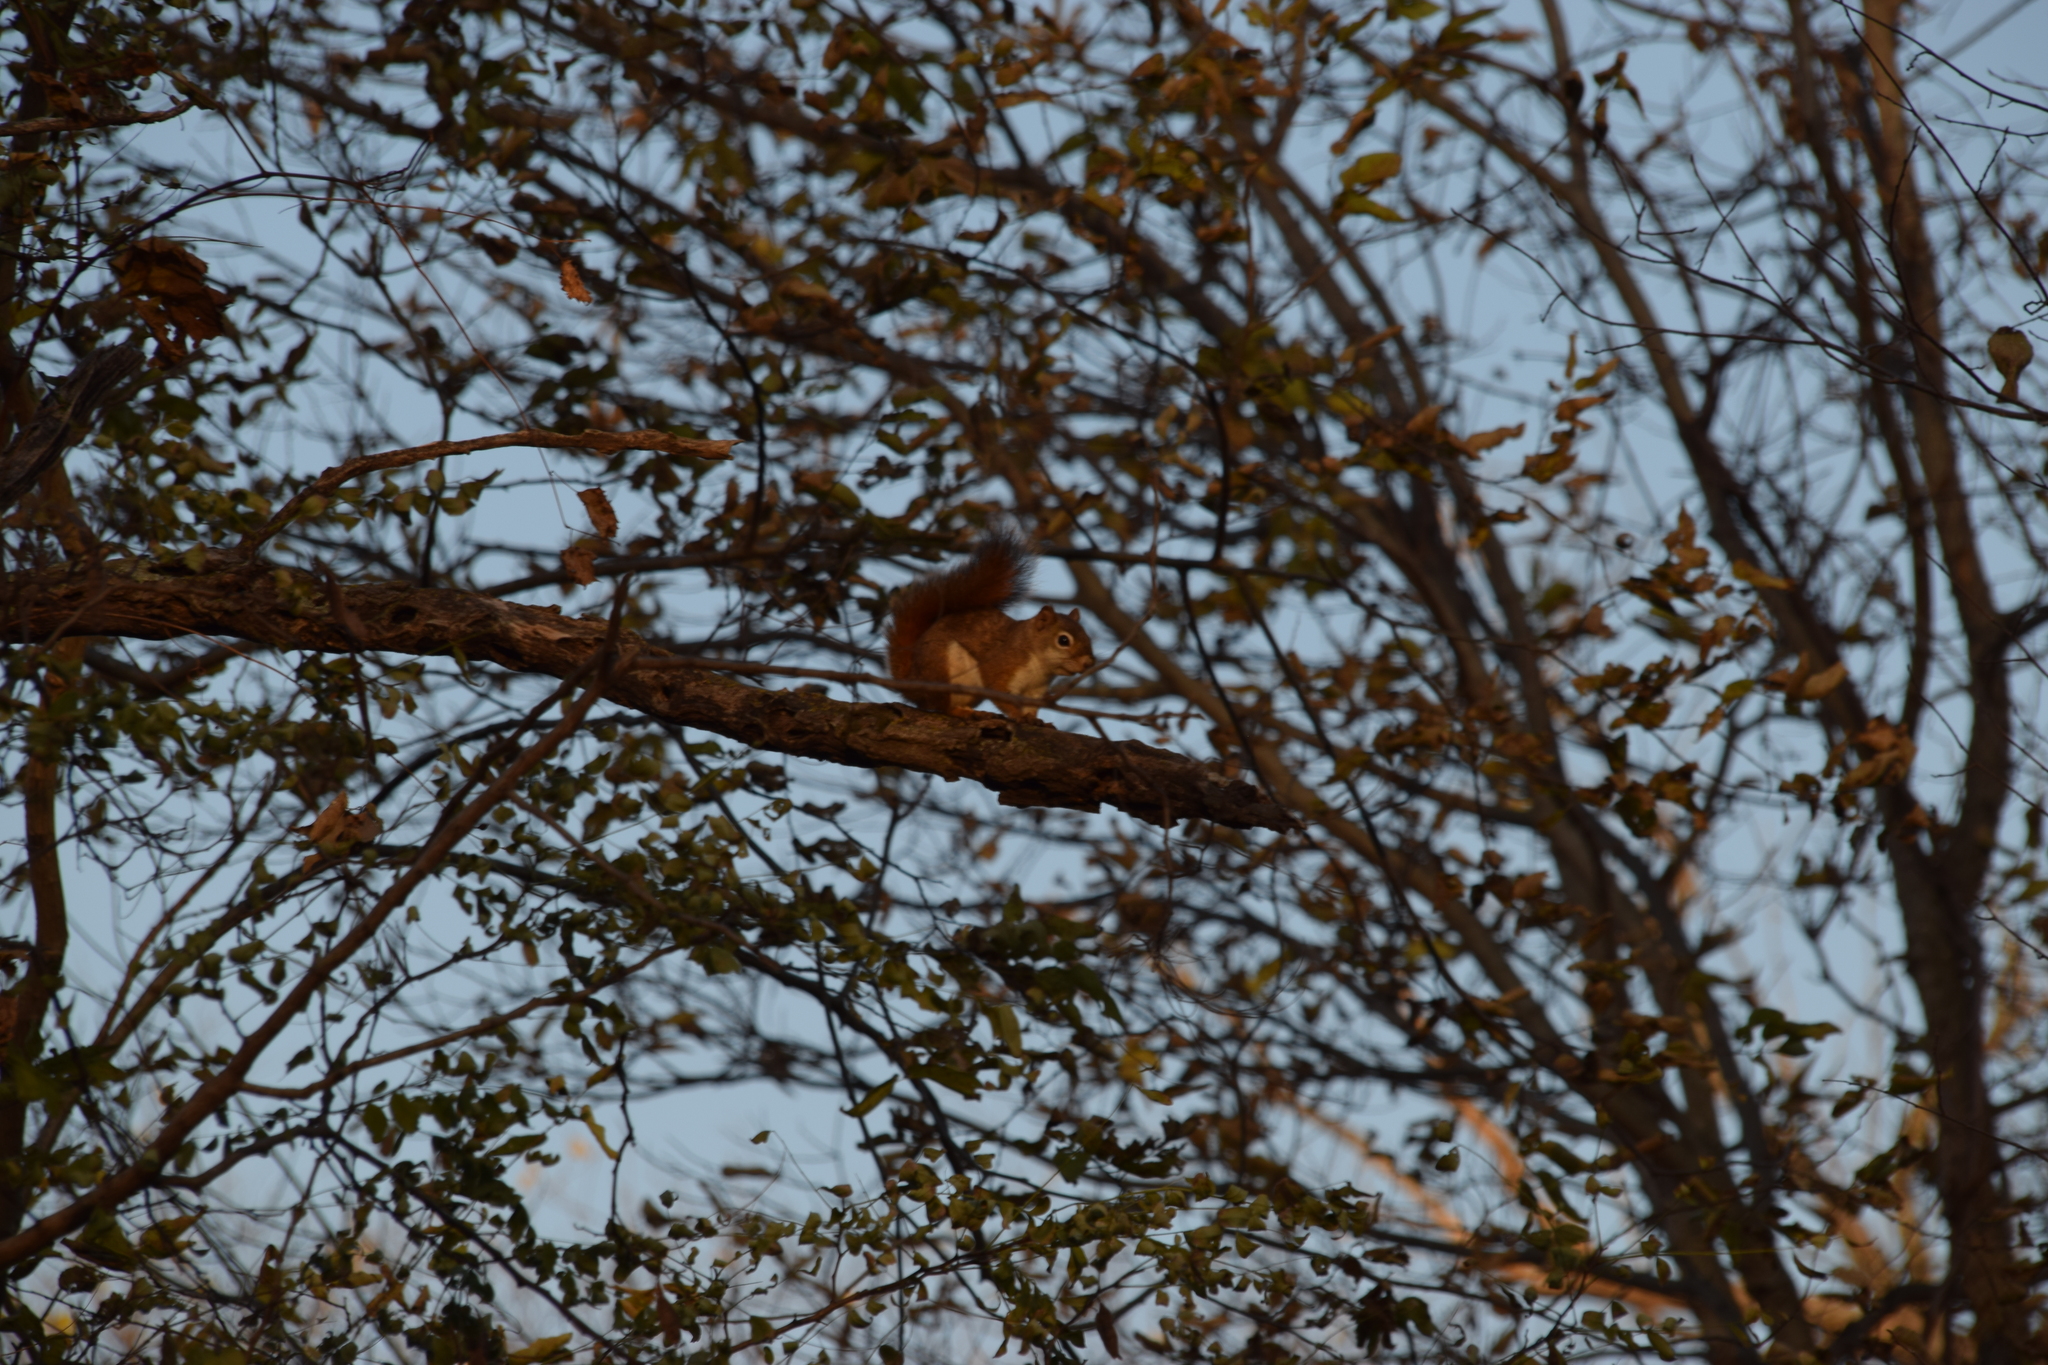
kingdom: Animalia
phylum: Chordata
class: Mammalia
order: Rodentia
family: Sciuridae
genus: Tamiasciurus
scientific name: Tamiasciurus hudsonicus
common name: Red squirrel
